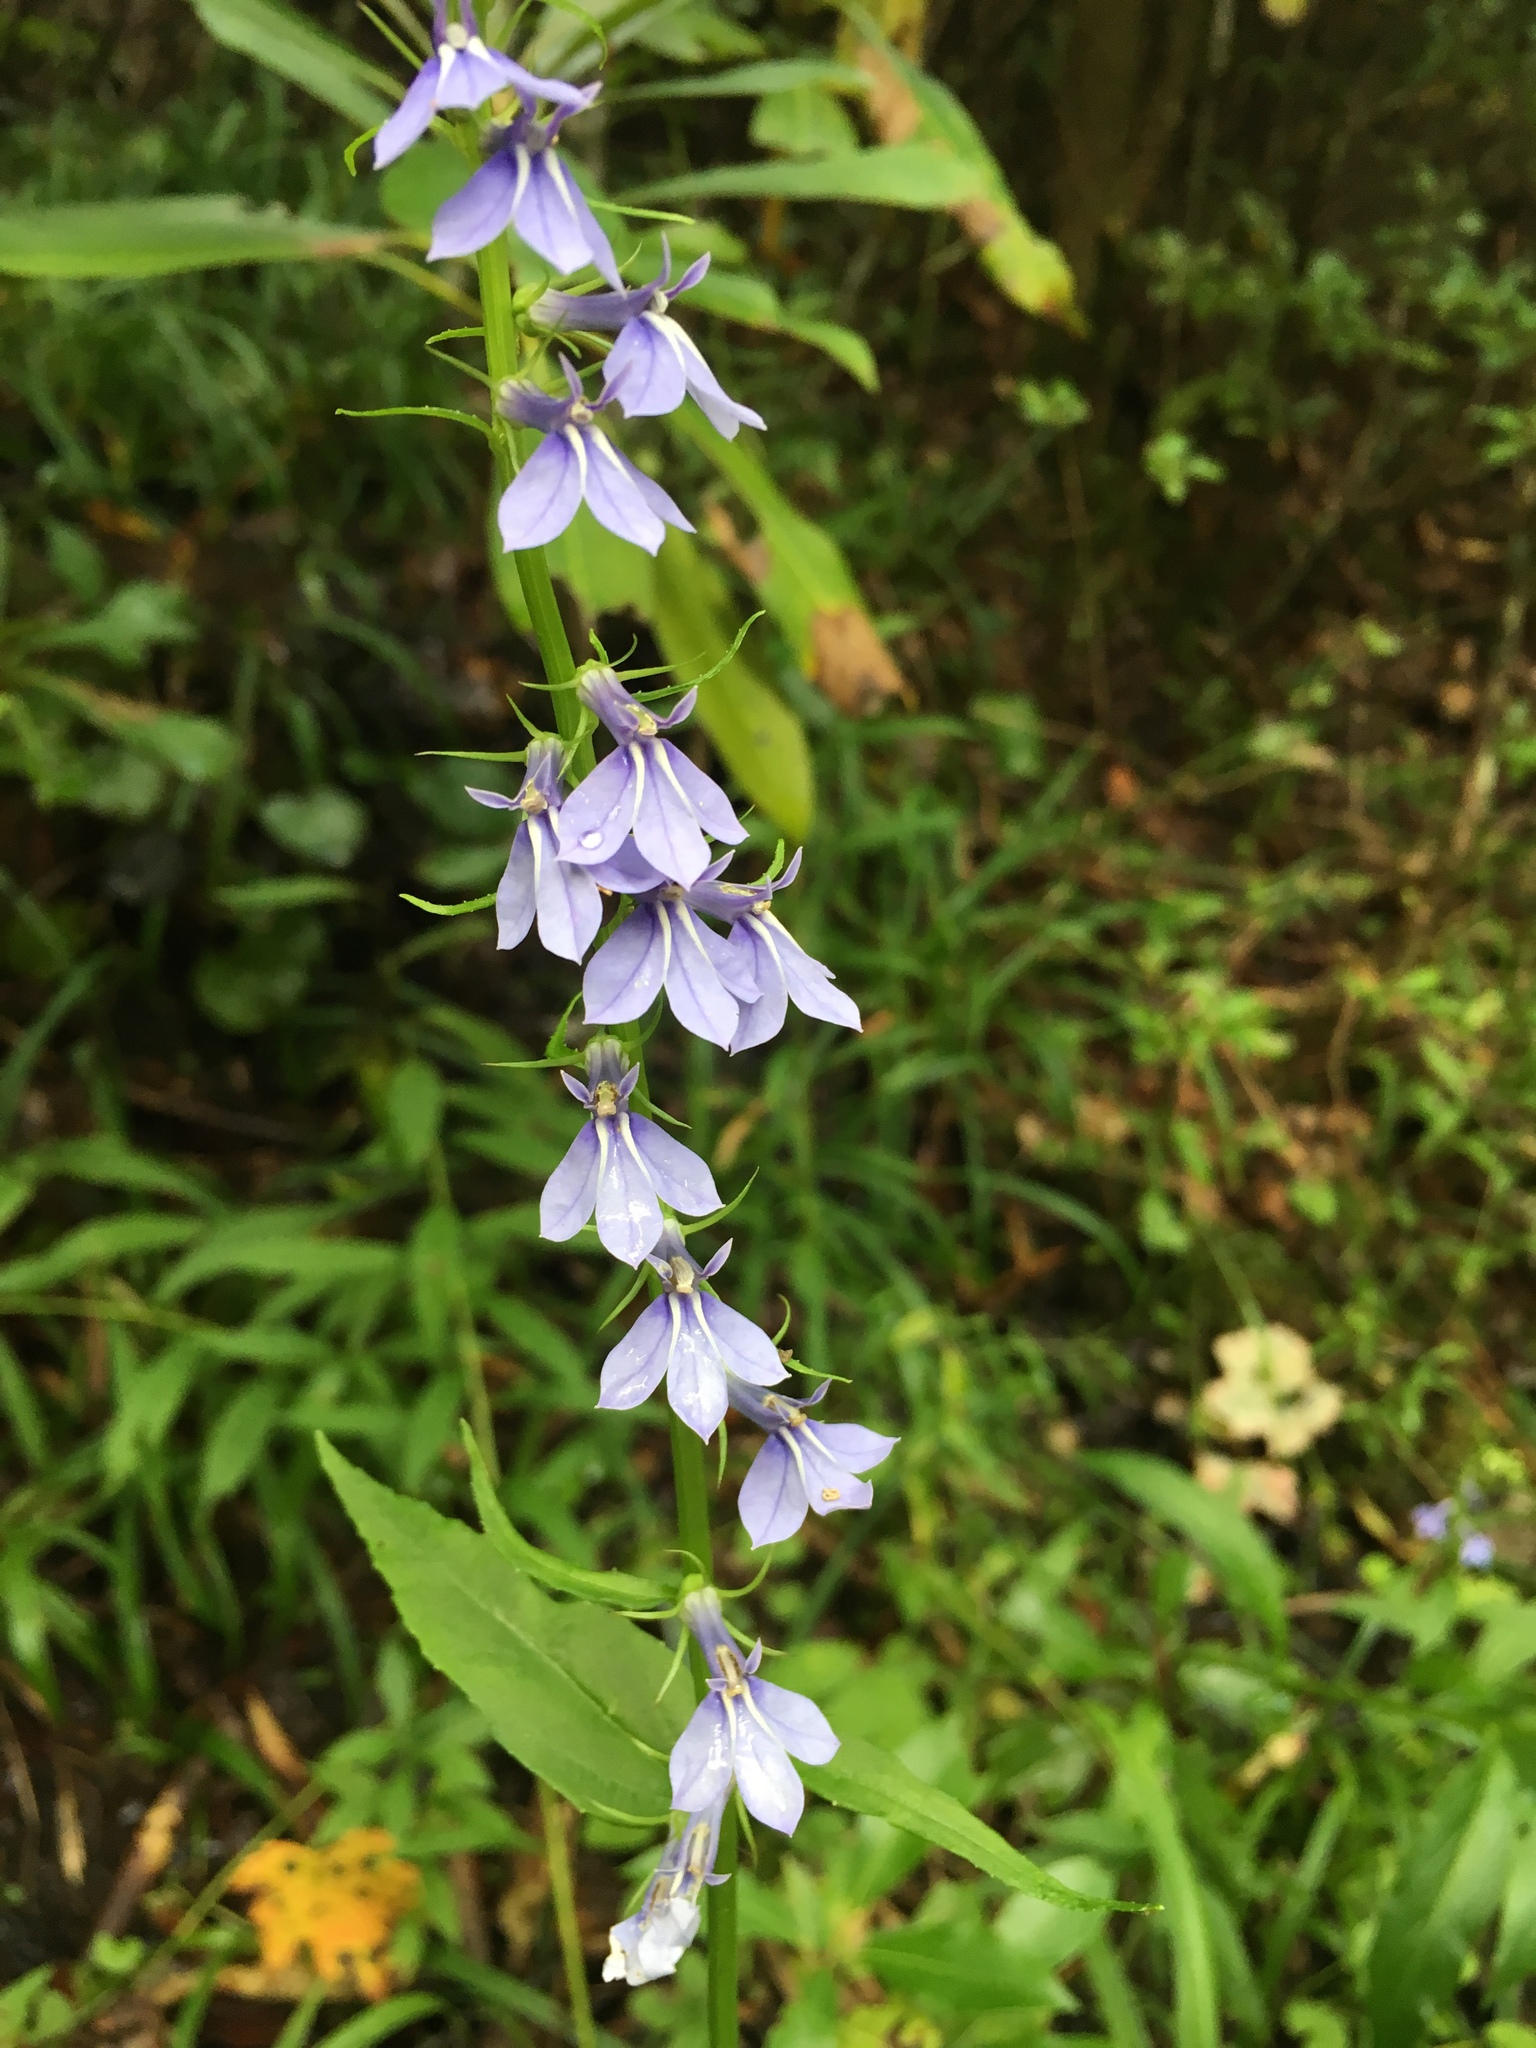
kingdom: Plantae
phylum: Tracheophyta
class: Magnoliopsida
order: Asterales
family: Campanulaceae
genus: Lobelia
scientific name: Lobelia amoena
